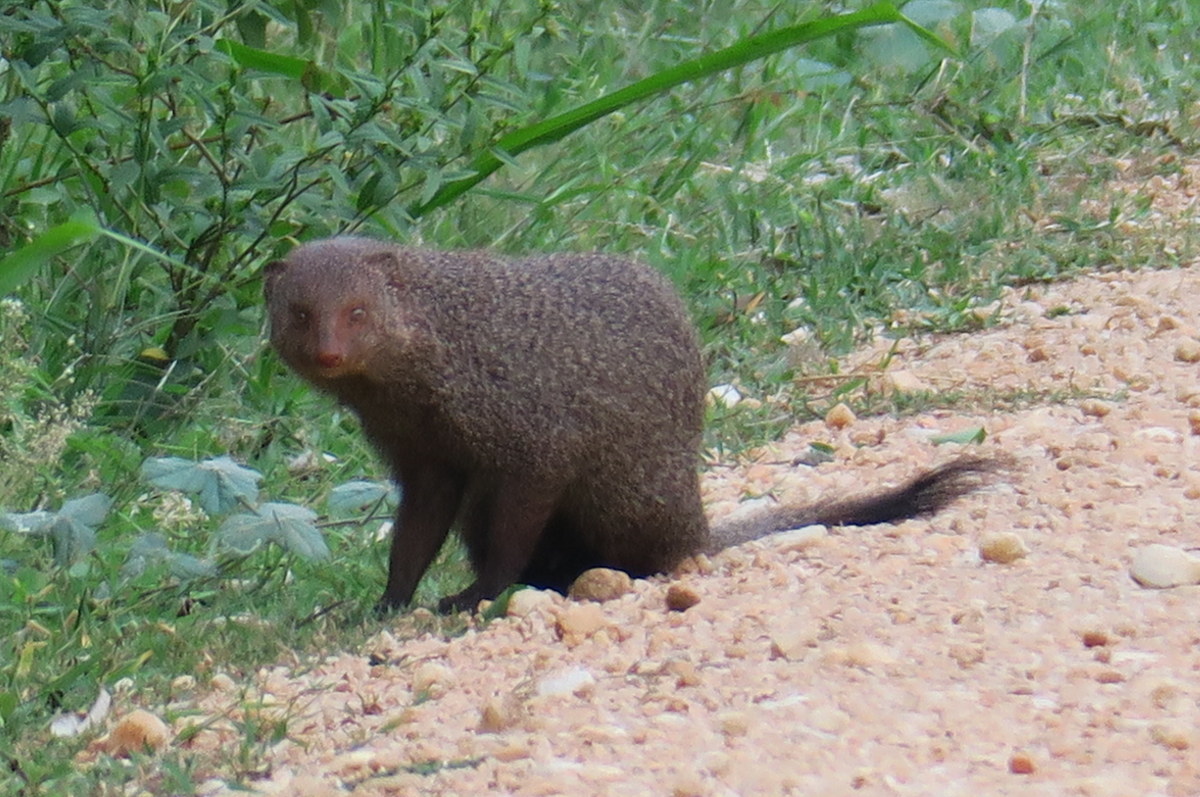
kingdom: Animalia
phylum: Chordata
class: Mammalia
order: Carnivora
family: Herpestidae
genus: Herpestes
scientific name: Herpestes smithii
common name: Ruddy mongoose
